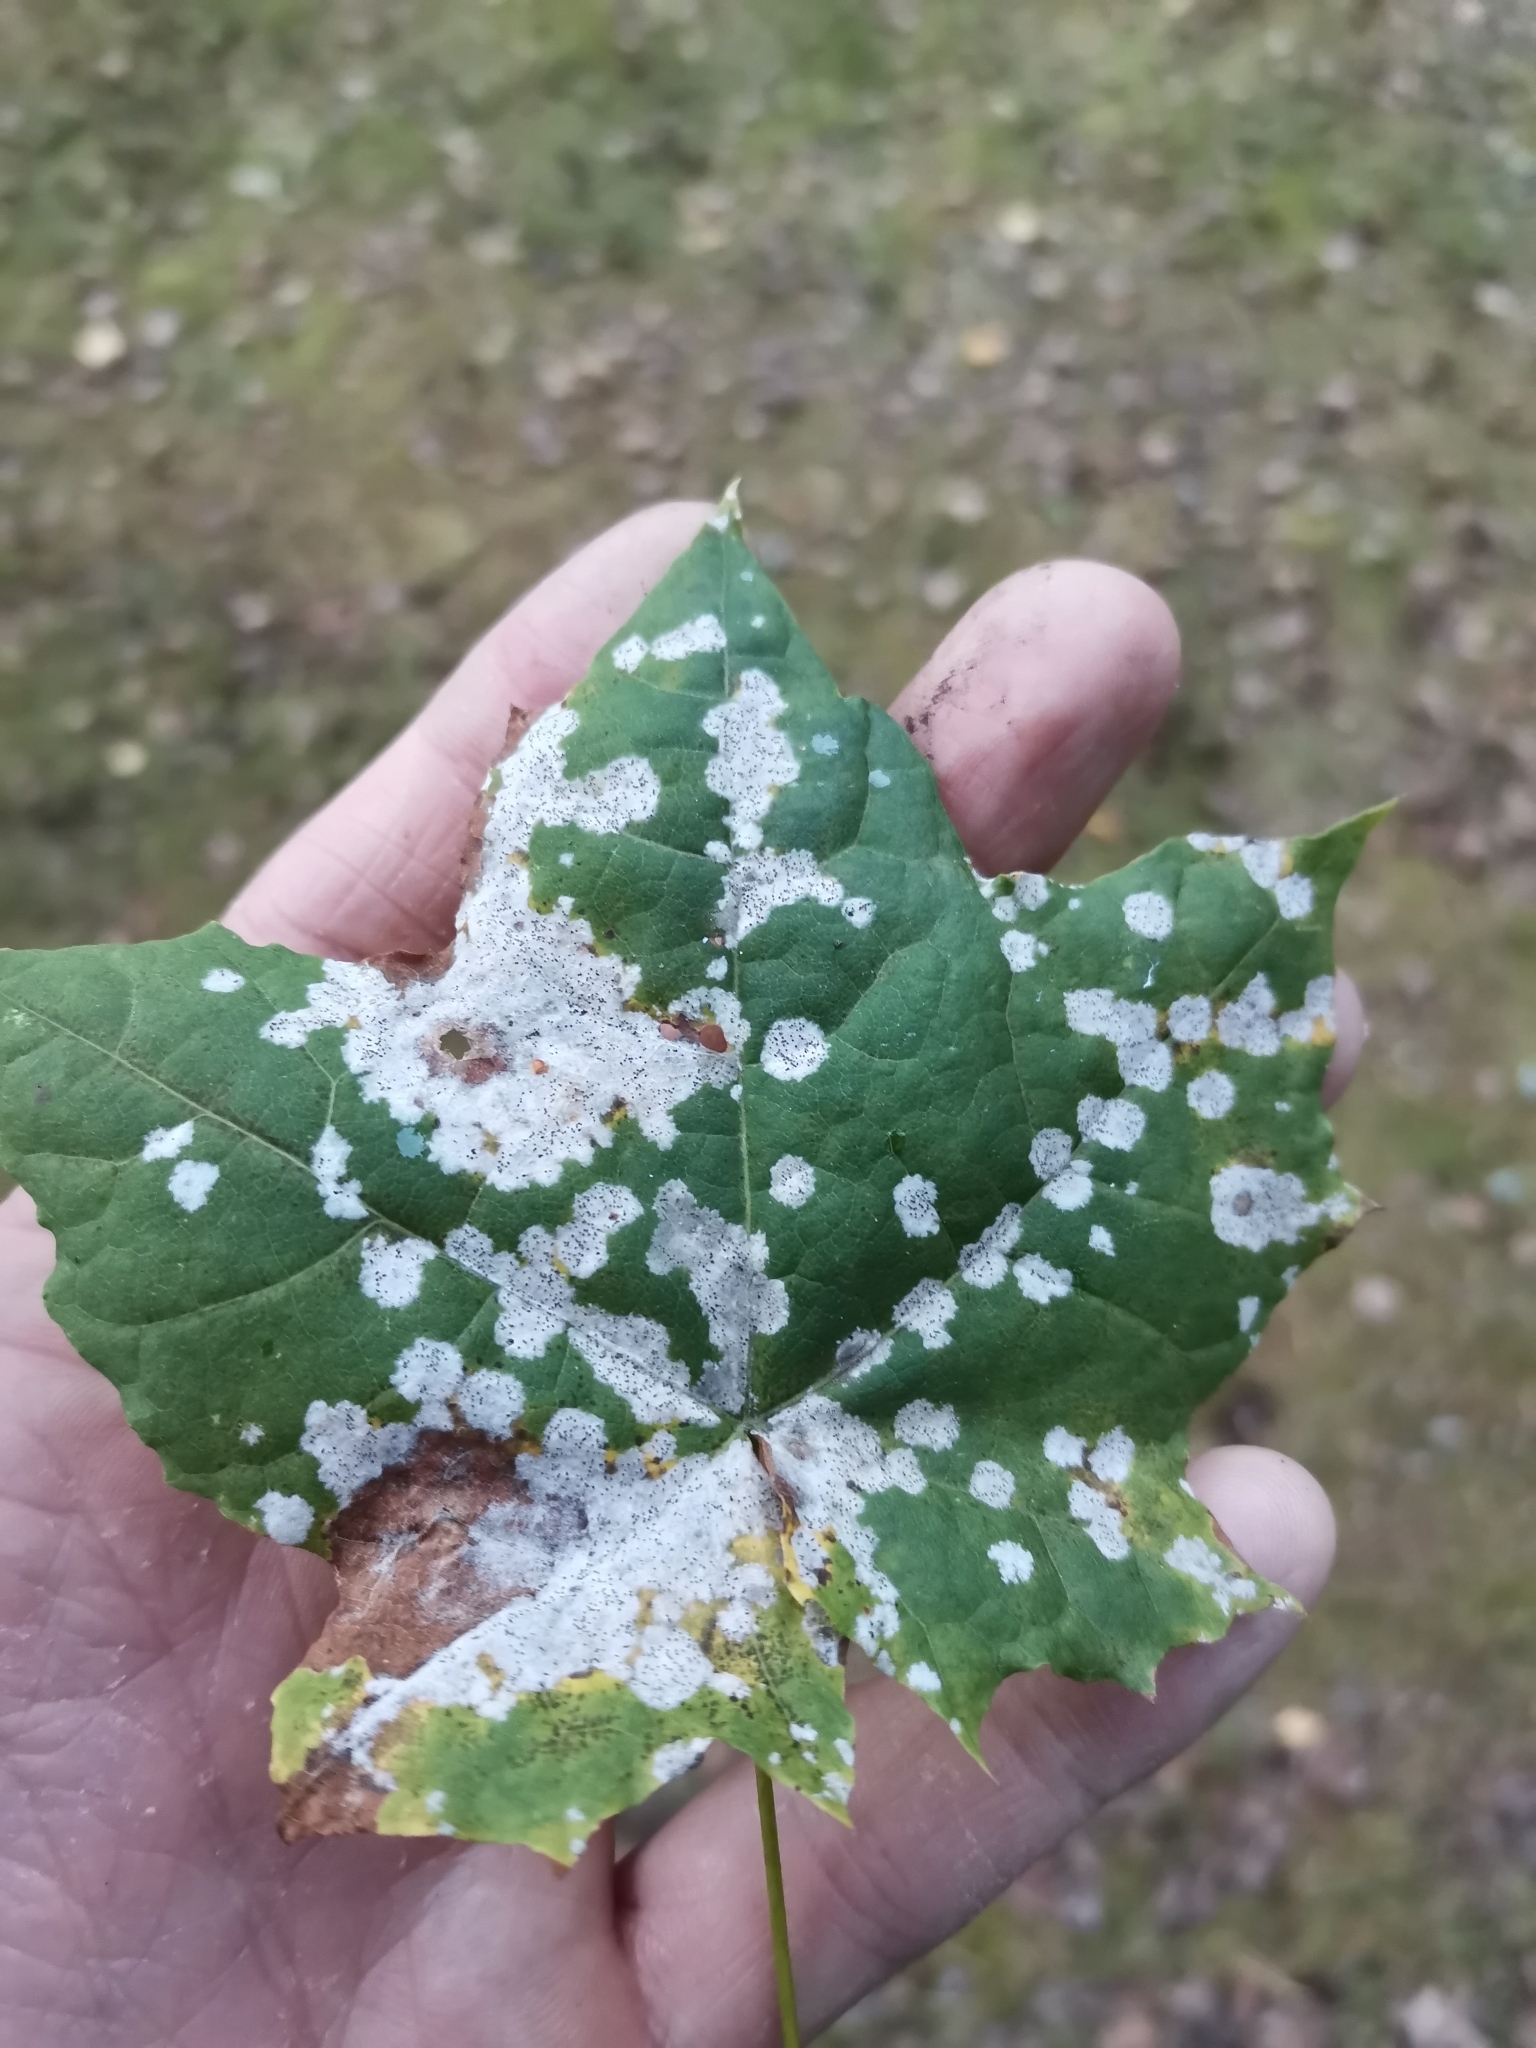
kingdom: Fungi
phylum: Ascomycota
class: Leotiomycetes
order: Helotiales
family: Erysiphaceae
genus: Sawadaea
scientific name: Sawadaea tulasnei
